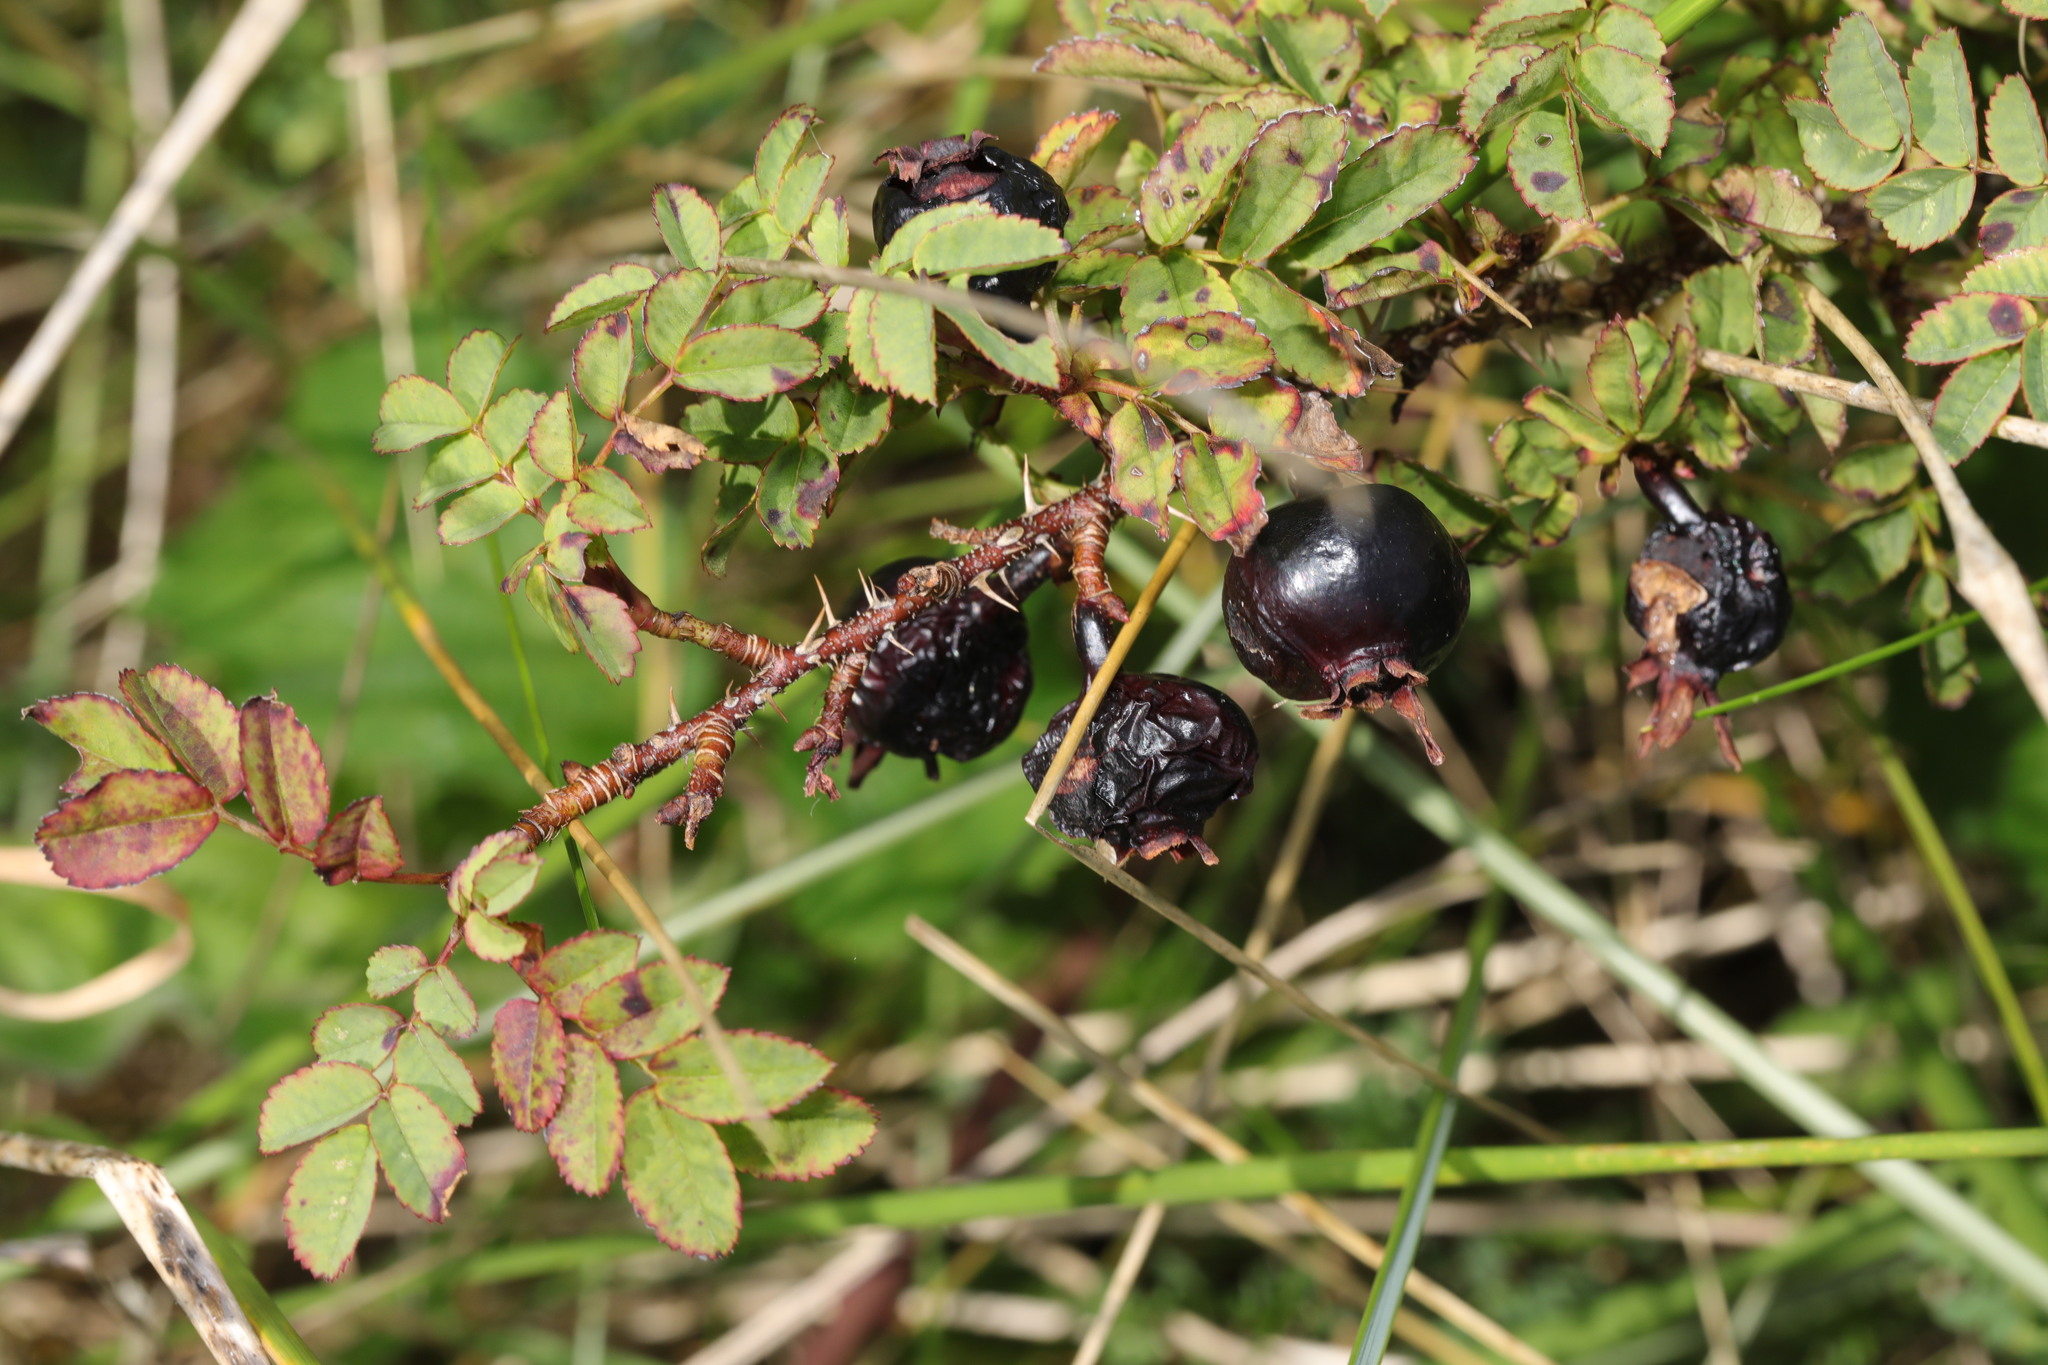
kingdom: Plantae
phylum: Tracheophyta
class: Magnoliopsida
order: Rosales
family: Rosaceae
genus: Rosa
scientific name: Rosa spinosissima
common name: Burnet rose
